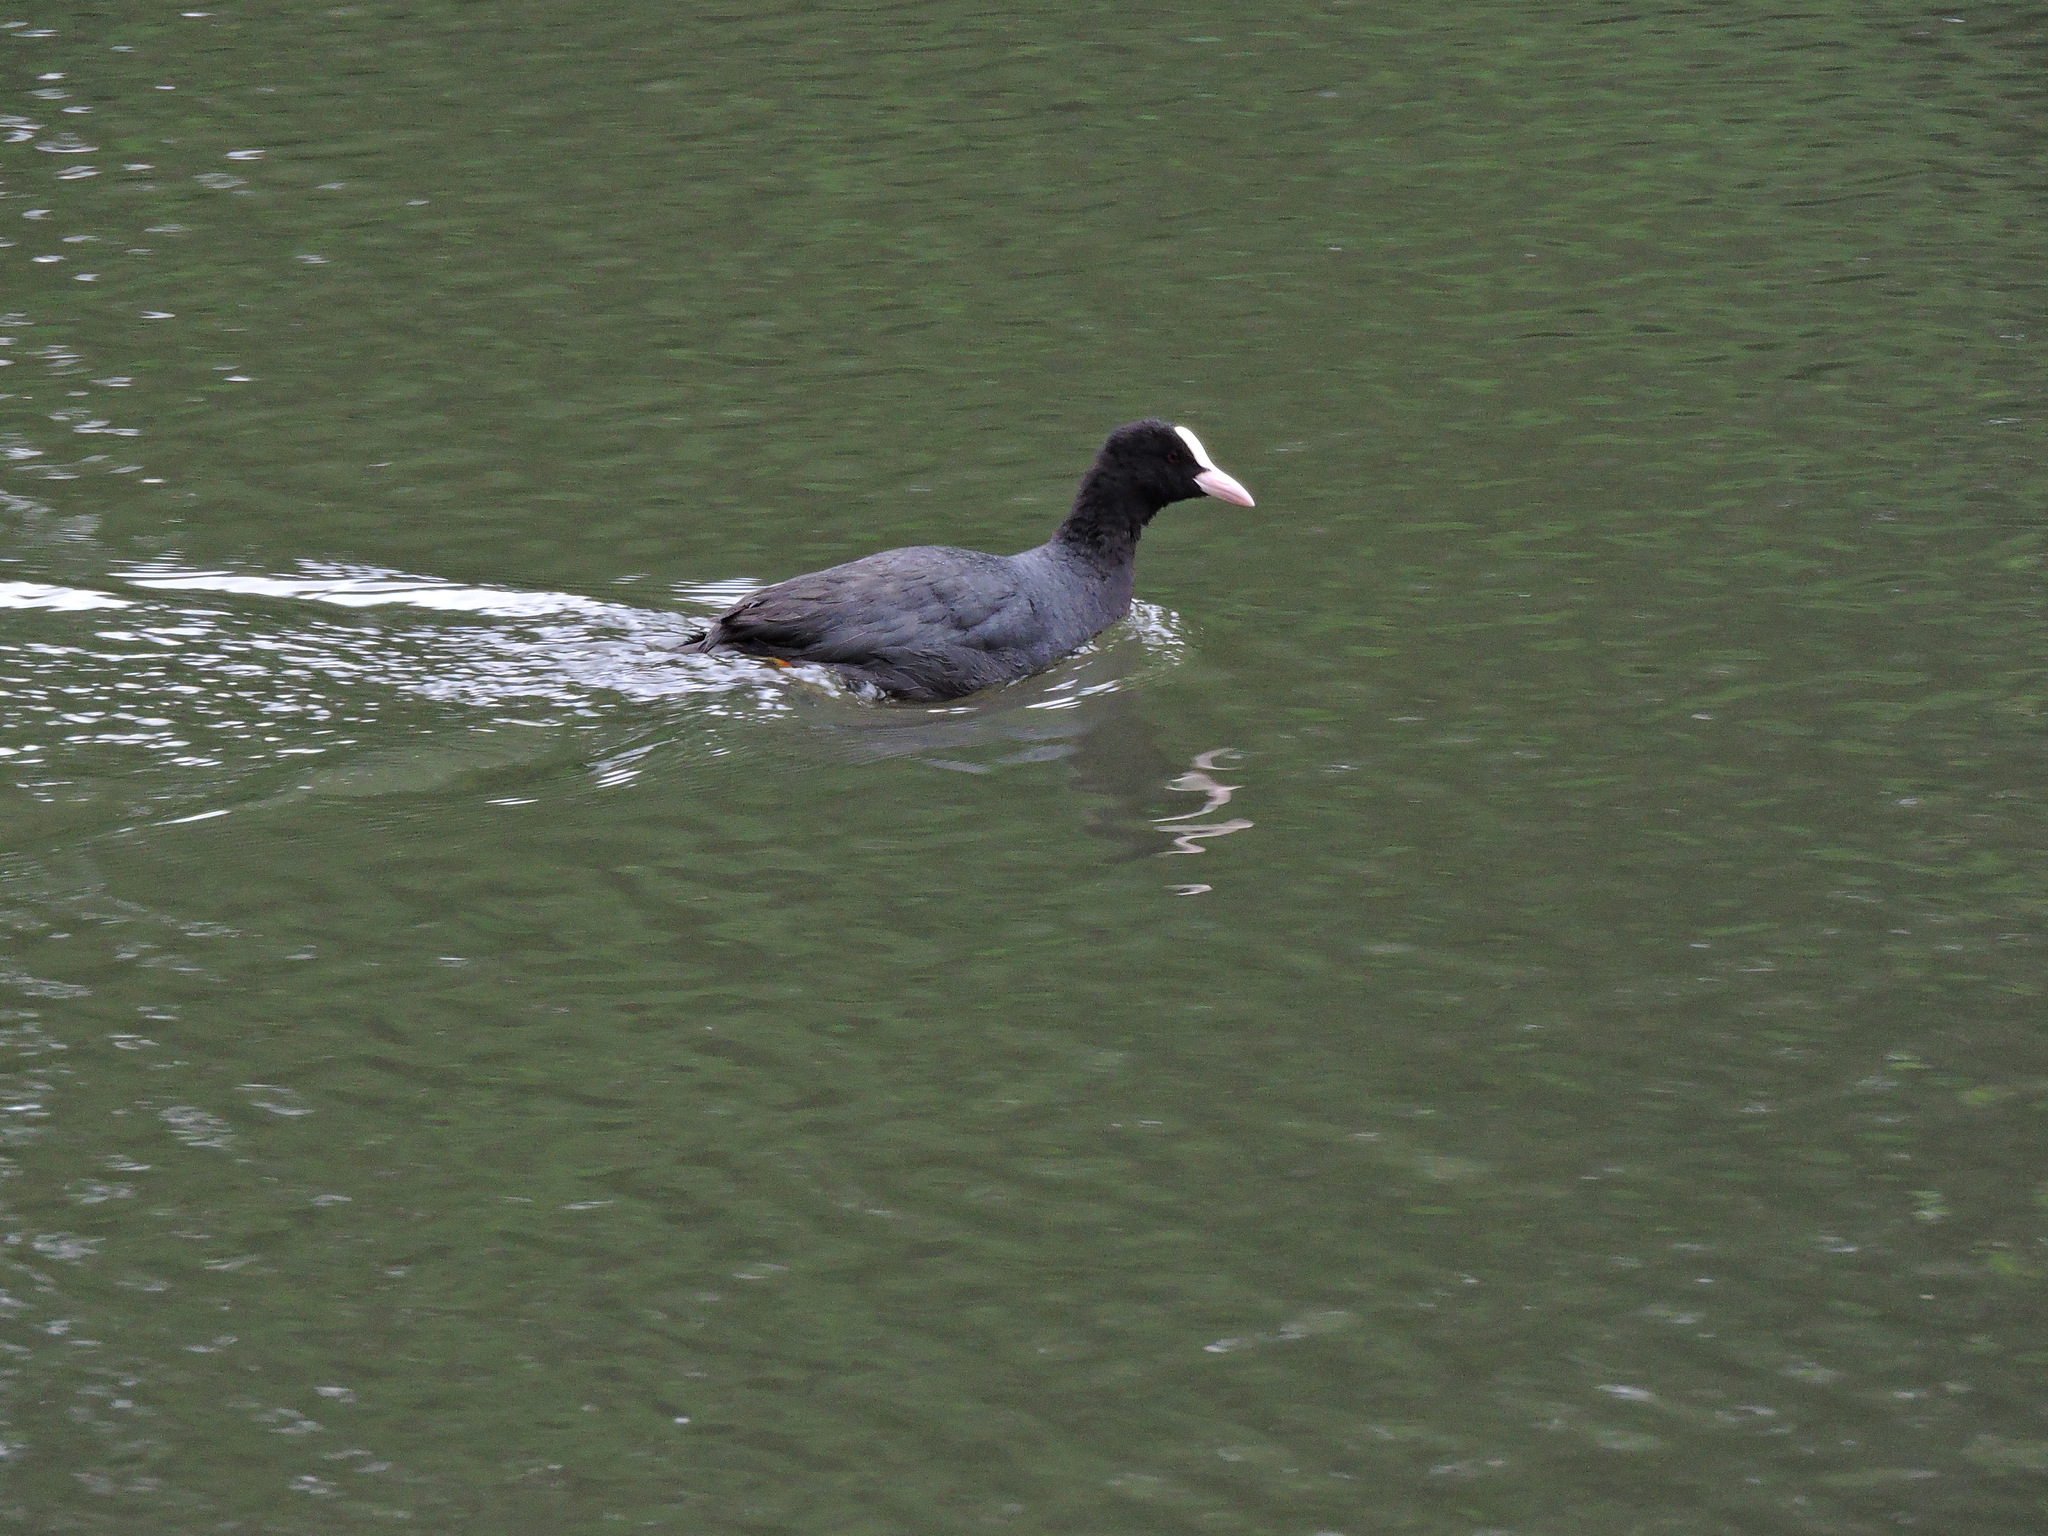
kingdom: Animalia
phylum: Chordata
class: Aves
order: Gruiformes
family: Rallidae
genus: Fulica
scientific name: Fulica atra
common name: Eurasian coot
